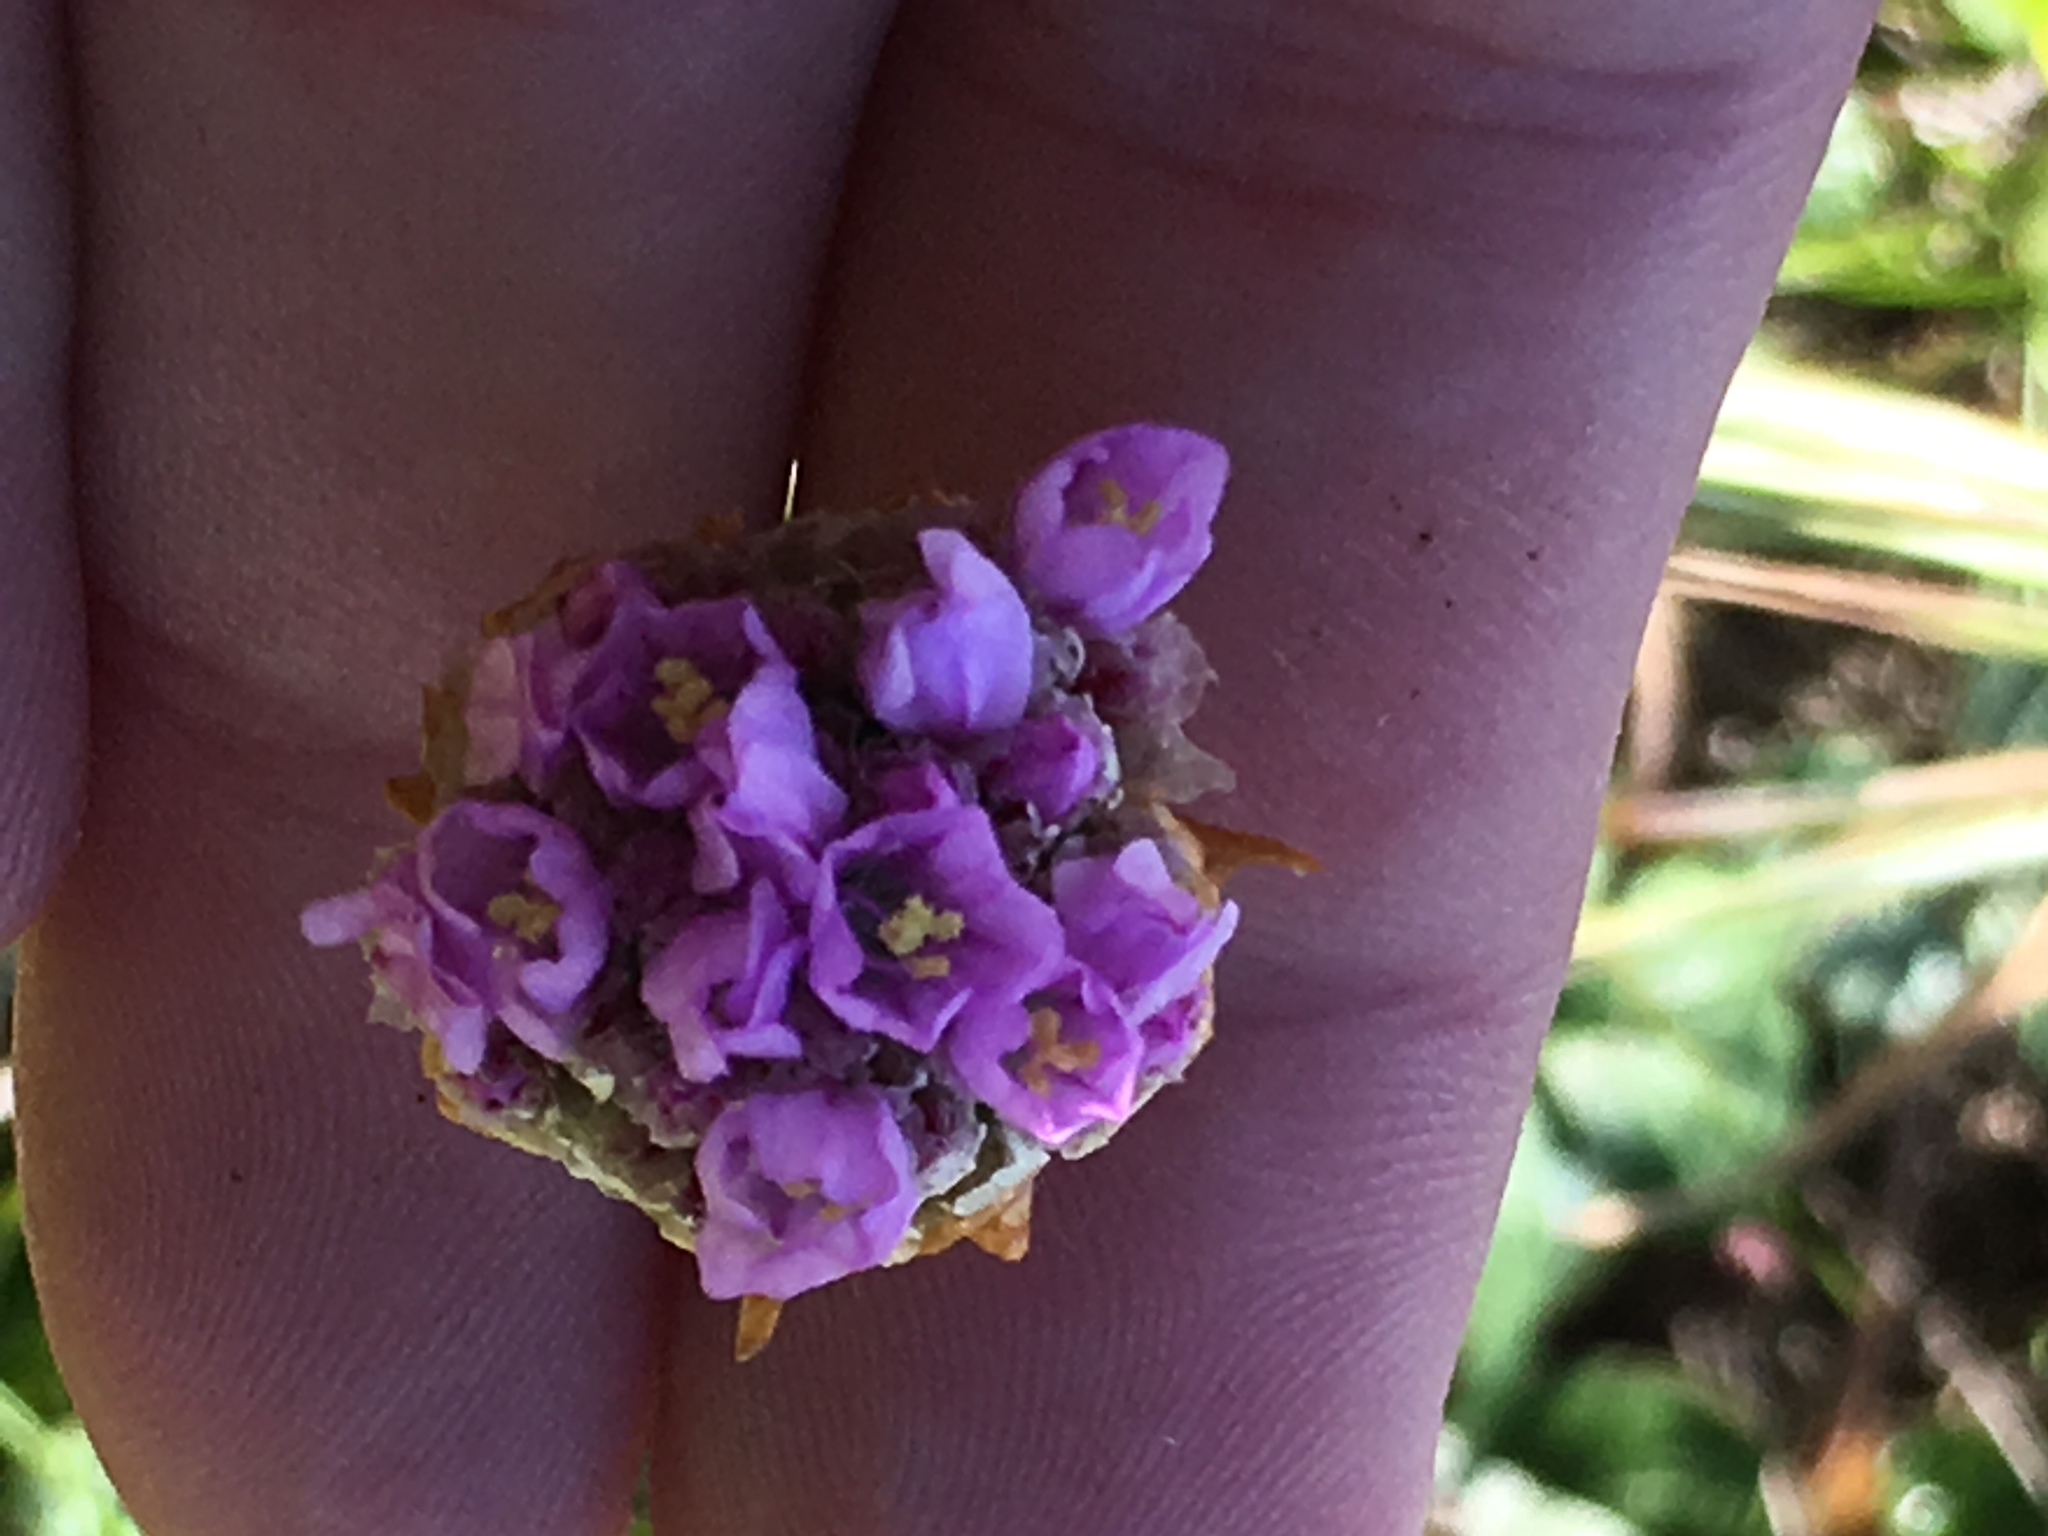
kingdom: Plantae
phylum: Tracheophyta
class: Magnoliopsida
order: Caryophyllales
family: Plumbaginaceae
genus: Armeria
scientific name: Armeria maritima
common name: Thrift
